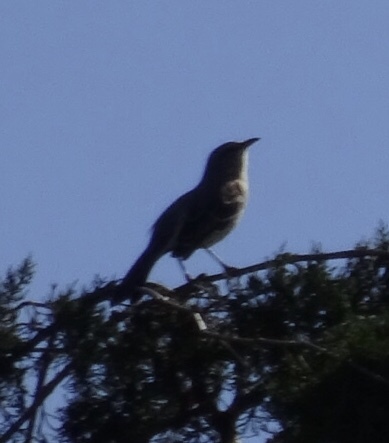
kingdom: Animalia
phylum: Chordata
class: Aves
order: Passeriformes
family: Mimidae
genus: Mimus
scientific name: Mimus polyglottos
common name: Northern mockingbird
